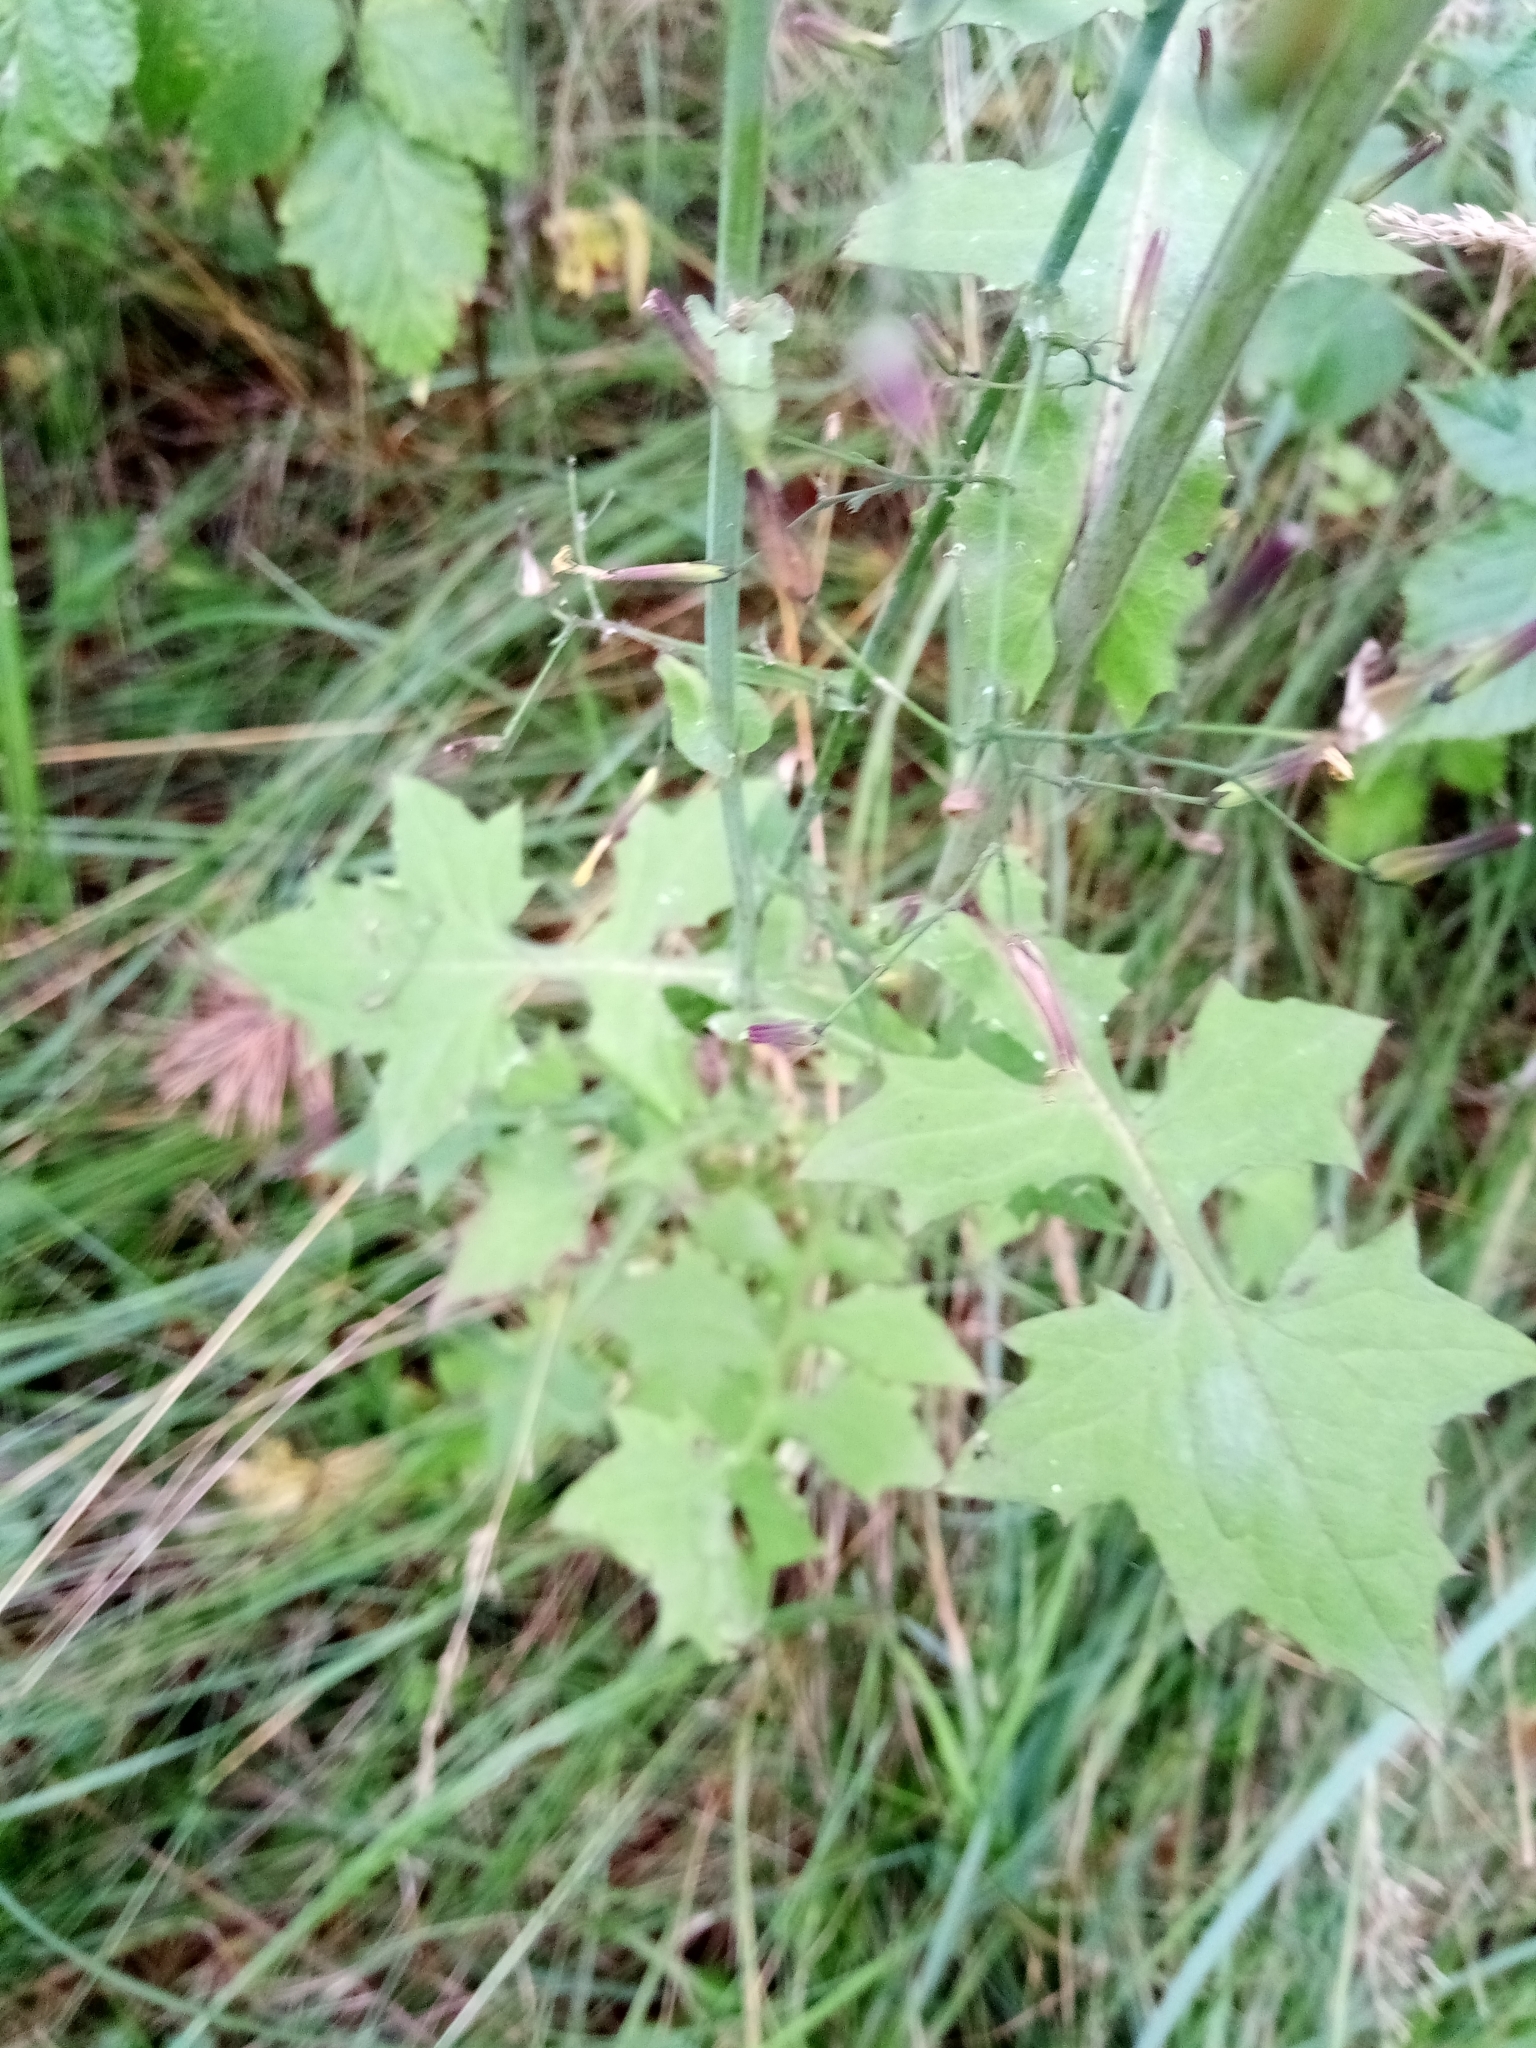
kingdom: Plantae
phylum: Tracheophyta
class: Magnoliopsida
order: Asterales
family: Asteraceae
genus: Mycelis
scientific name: Mycelis muralis
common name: Wall lettuce
